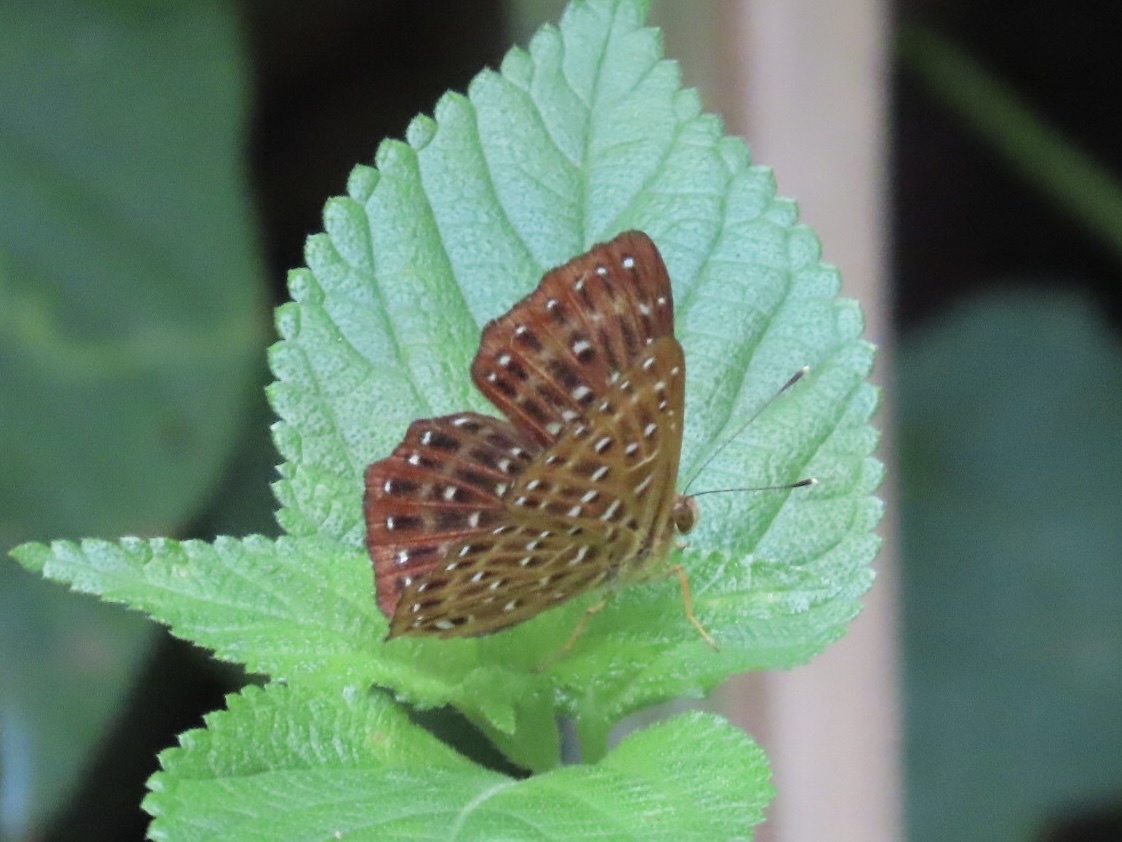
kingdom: Animalia
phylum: Arthropoda
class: Insecta
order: Lepidoptera
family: Riodinidae
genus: Zemeros
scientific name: Zemeros flegyas
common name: Punchinello
